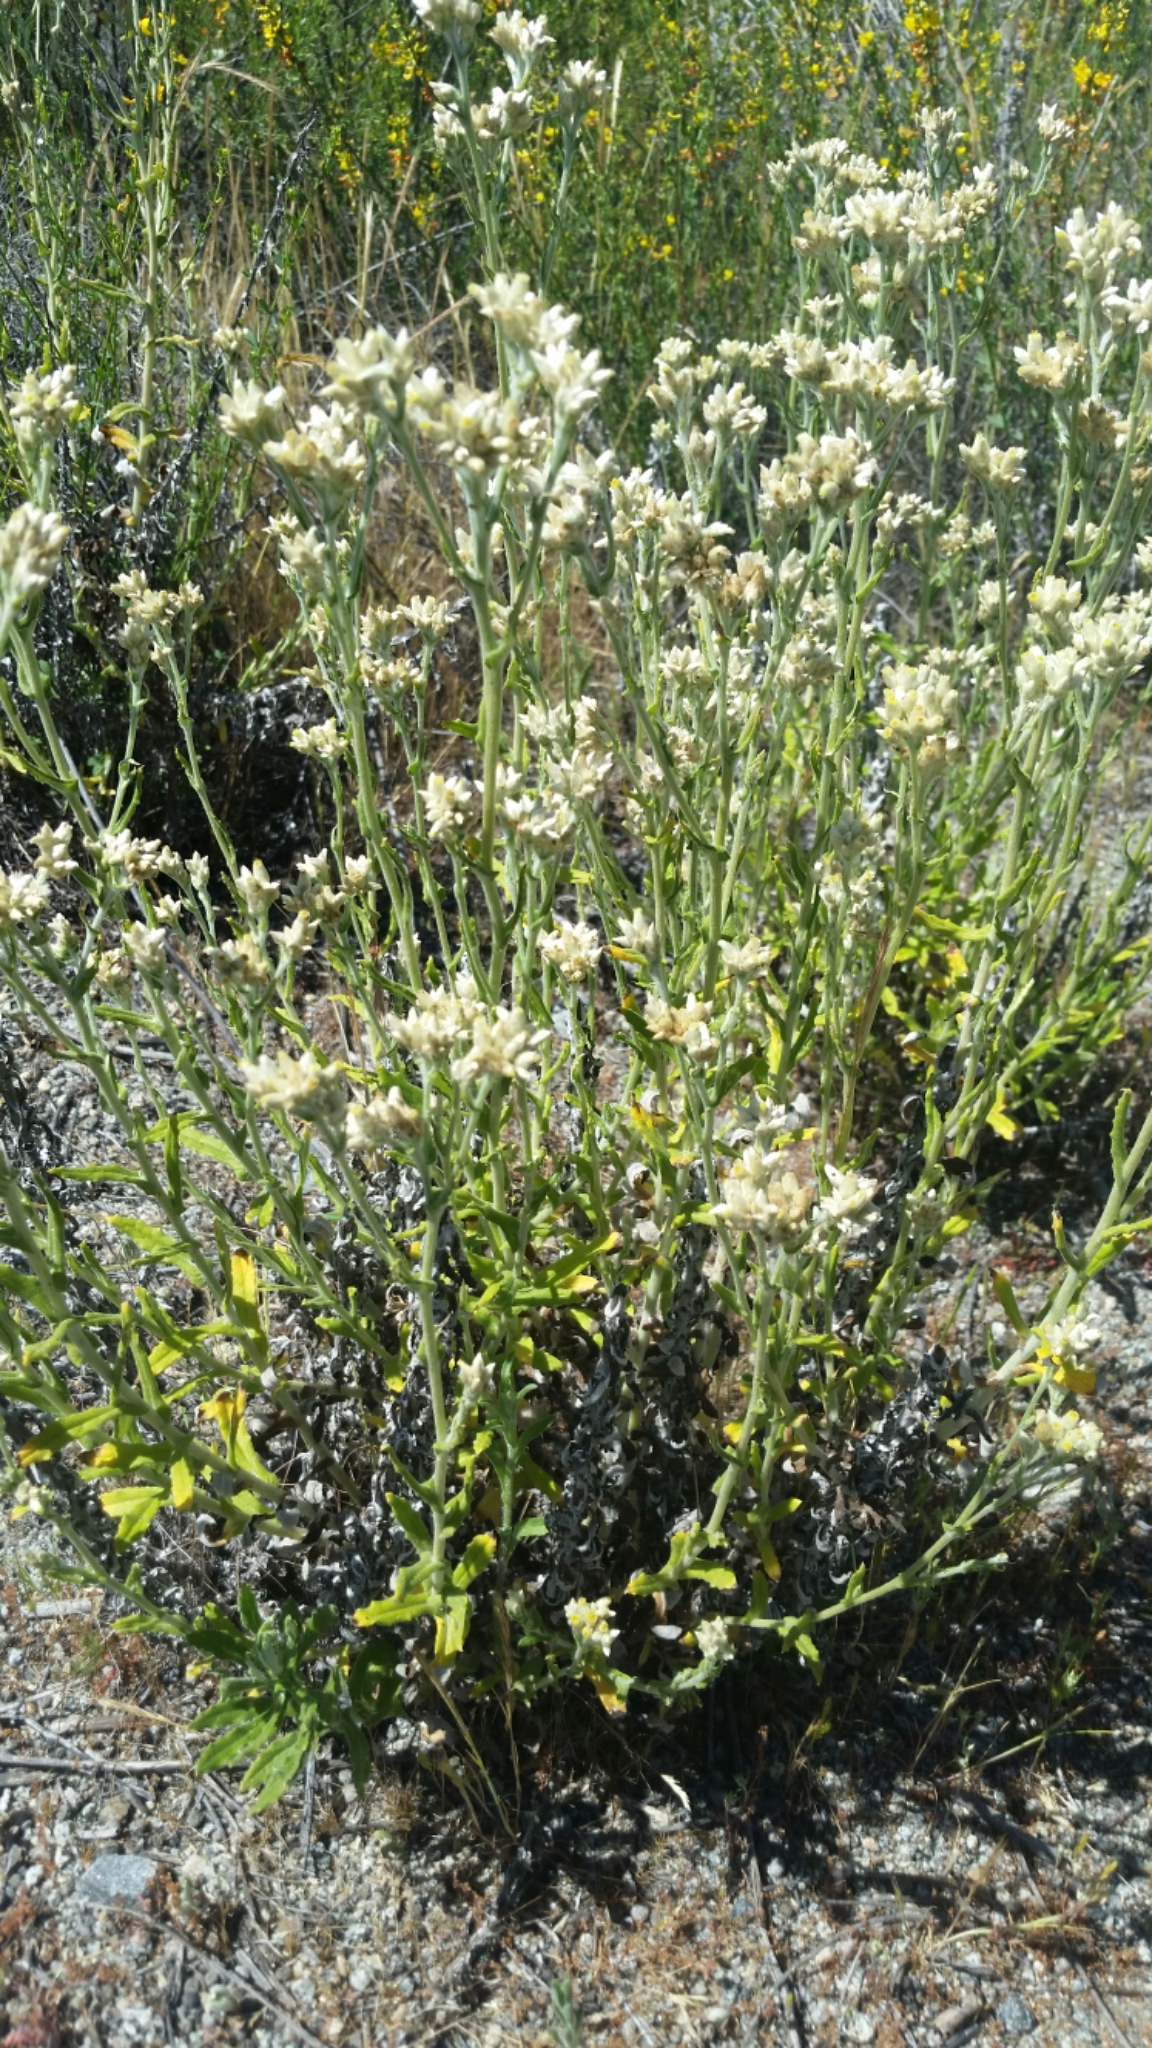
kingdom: Plantae
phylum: Tracheophyta
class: Magnoliopsida
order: Asterales
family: Asteraceae
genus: Pseudognaphalium
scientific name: Pseudognaphalium biolettii
